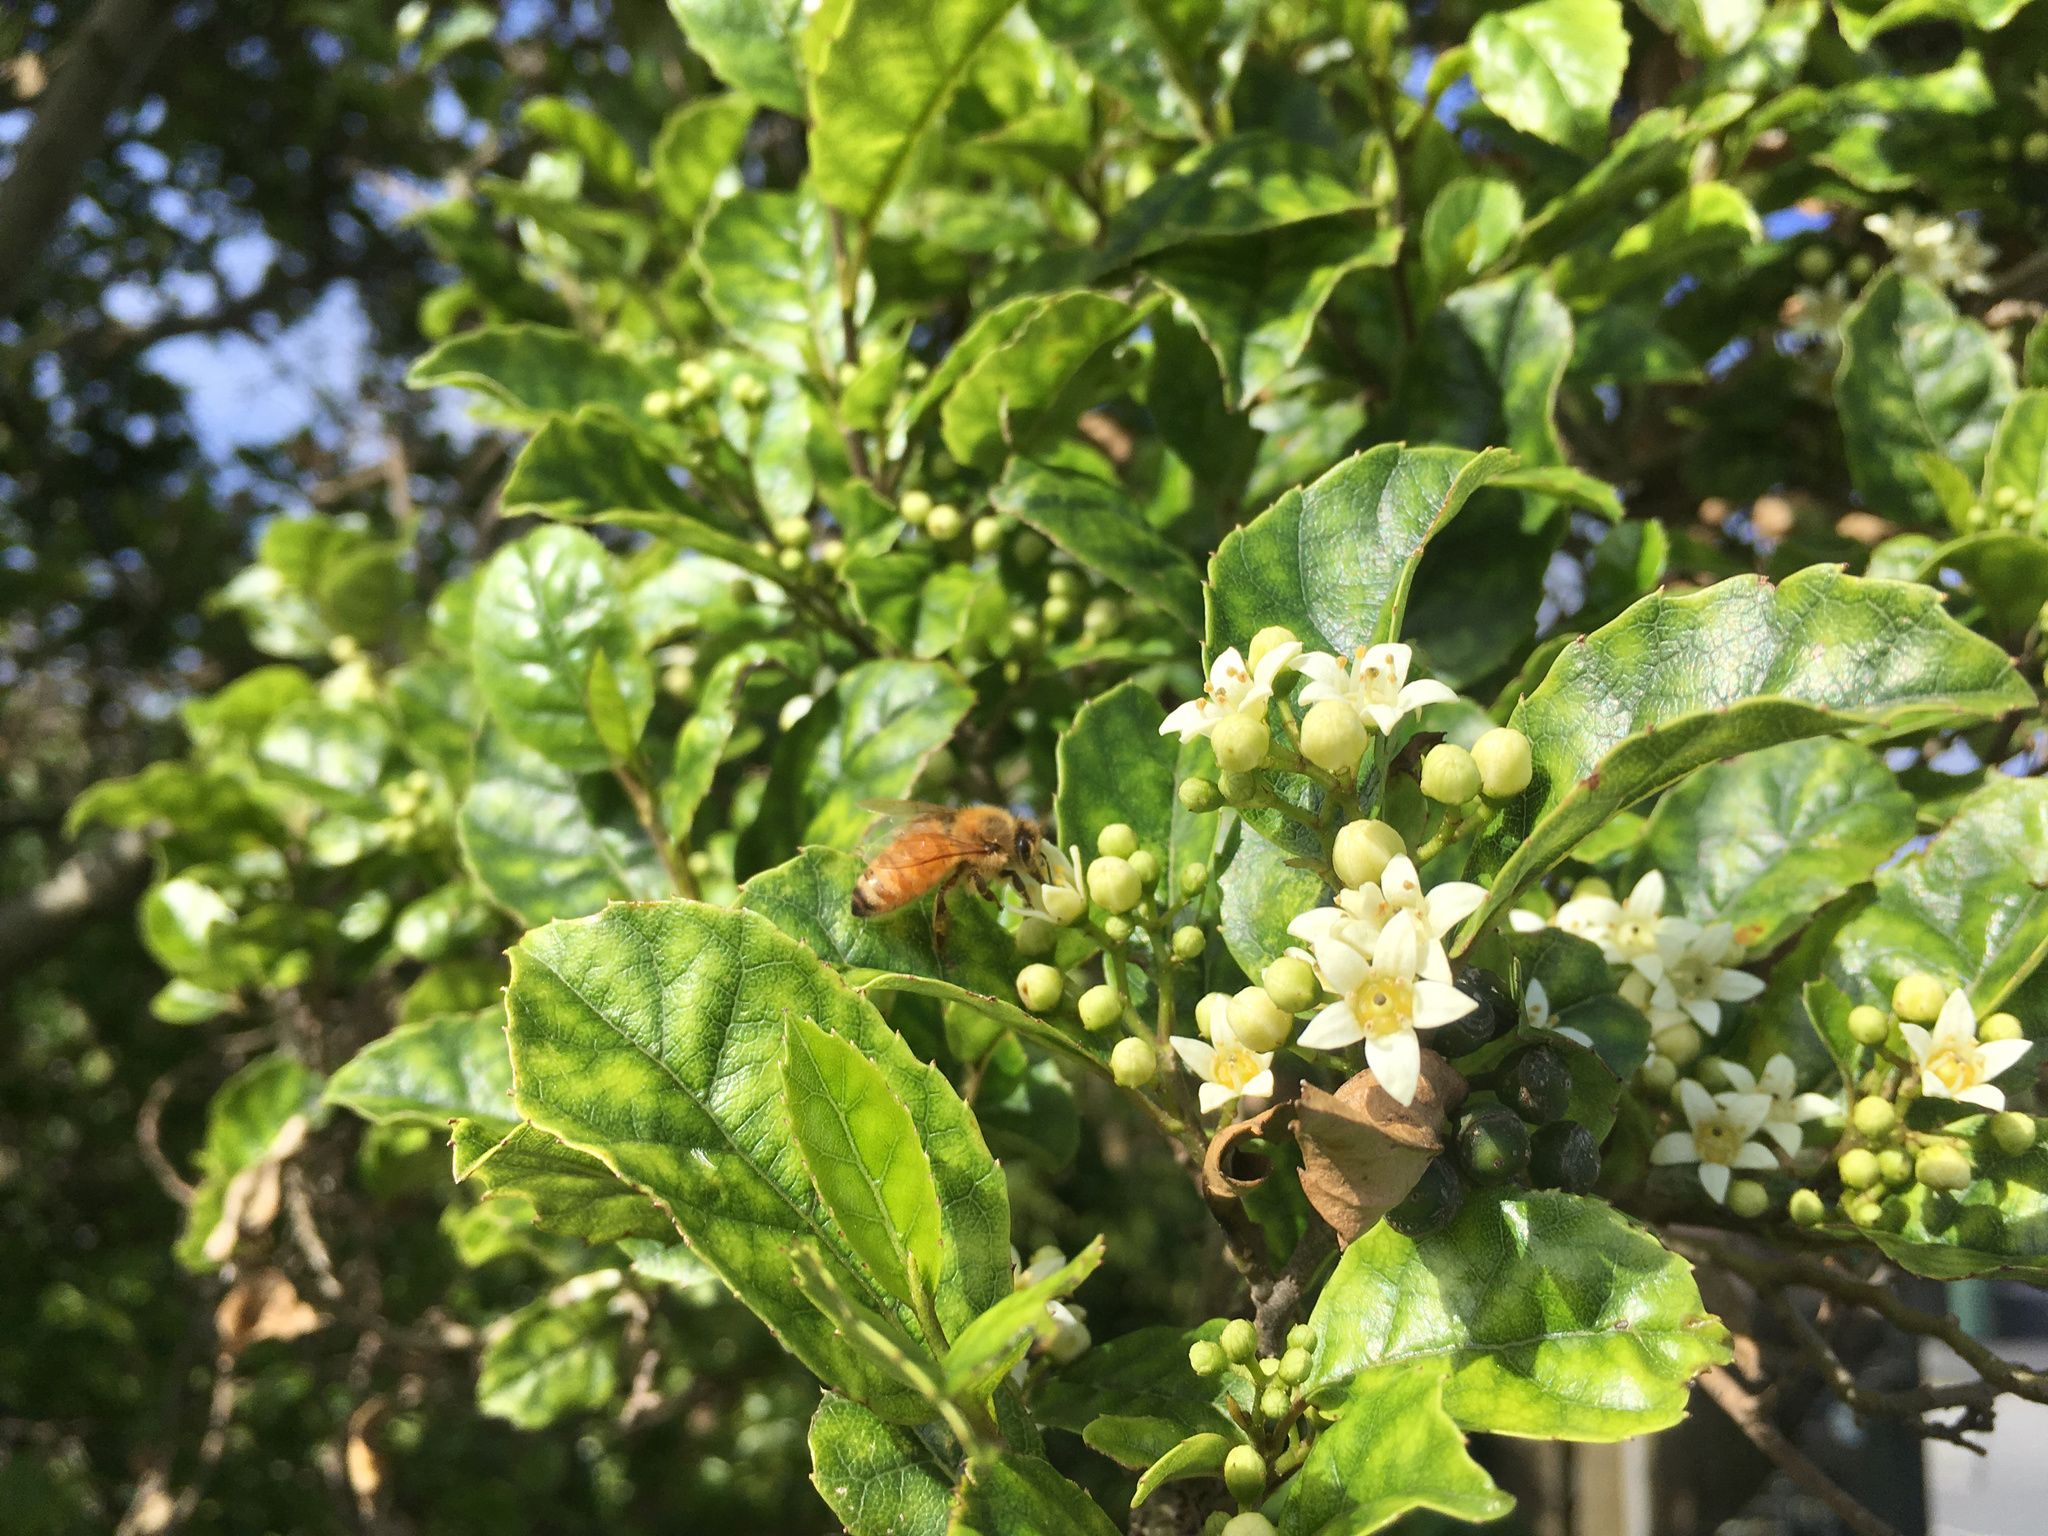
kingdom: Animalia
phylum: Arthropoda
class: Insecta
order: Hymenoptera
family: Apidae
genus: Apis
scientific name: Apis mellifera
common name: Honey bee
